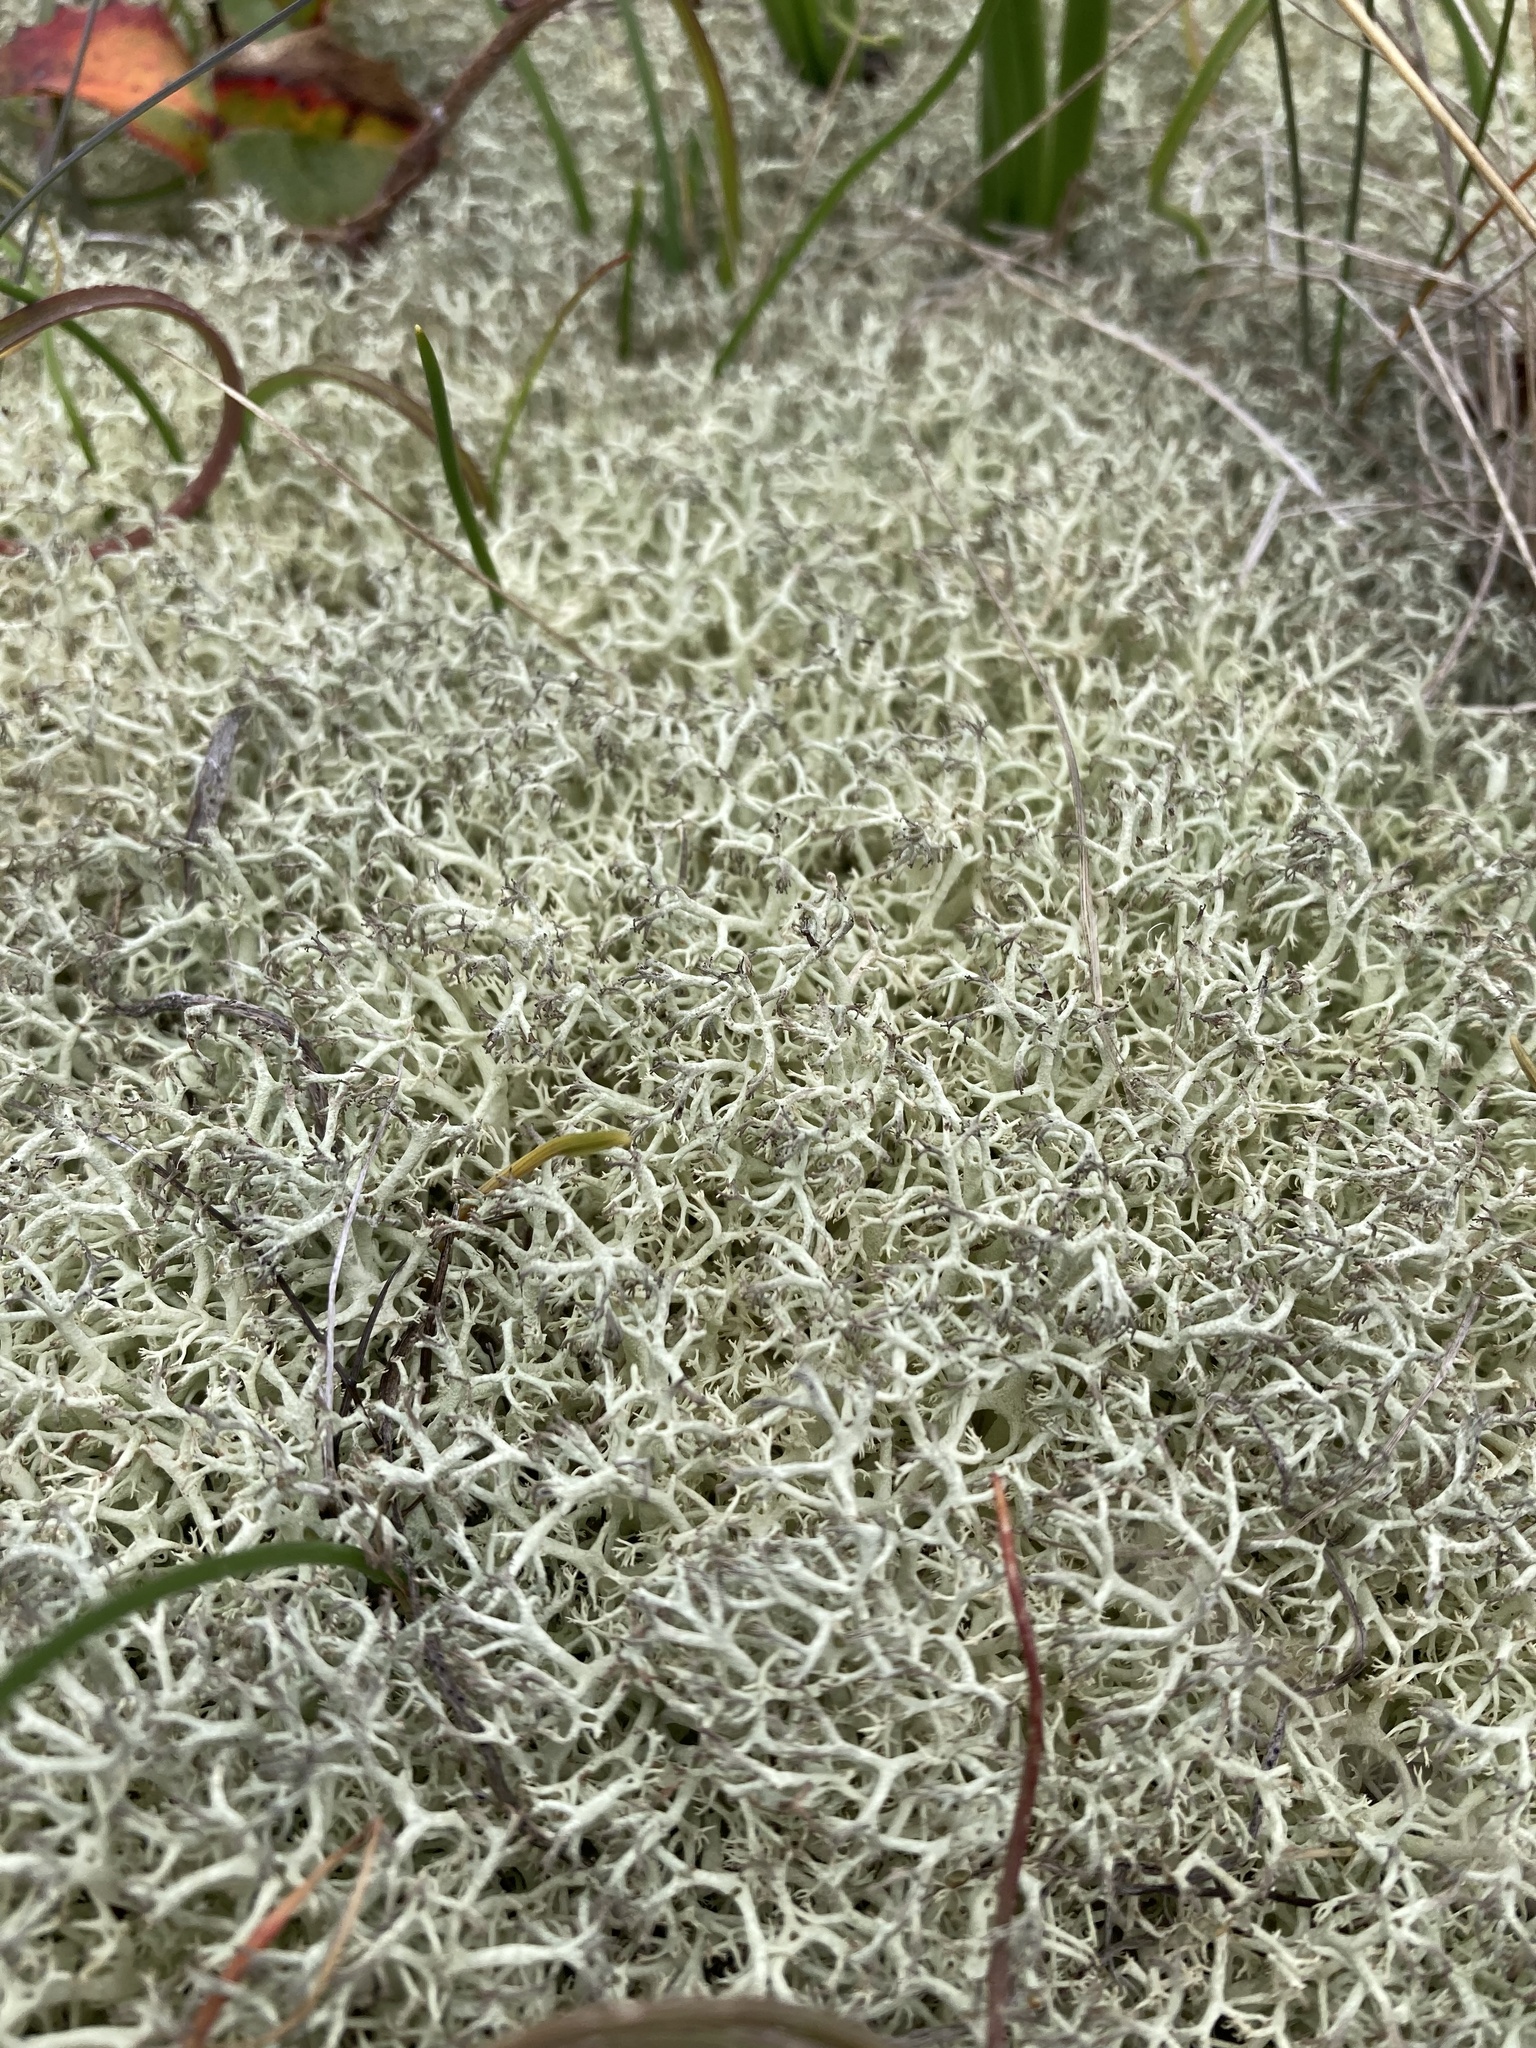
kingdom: Fungi
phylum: Ascomycota
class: Lecanoromycetes
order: Lecanorales
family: Cladoniaceae
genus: Cladonia
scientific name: Cladonia portentosa
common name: Reindeer lichen
